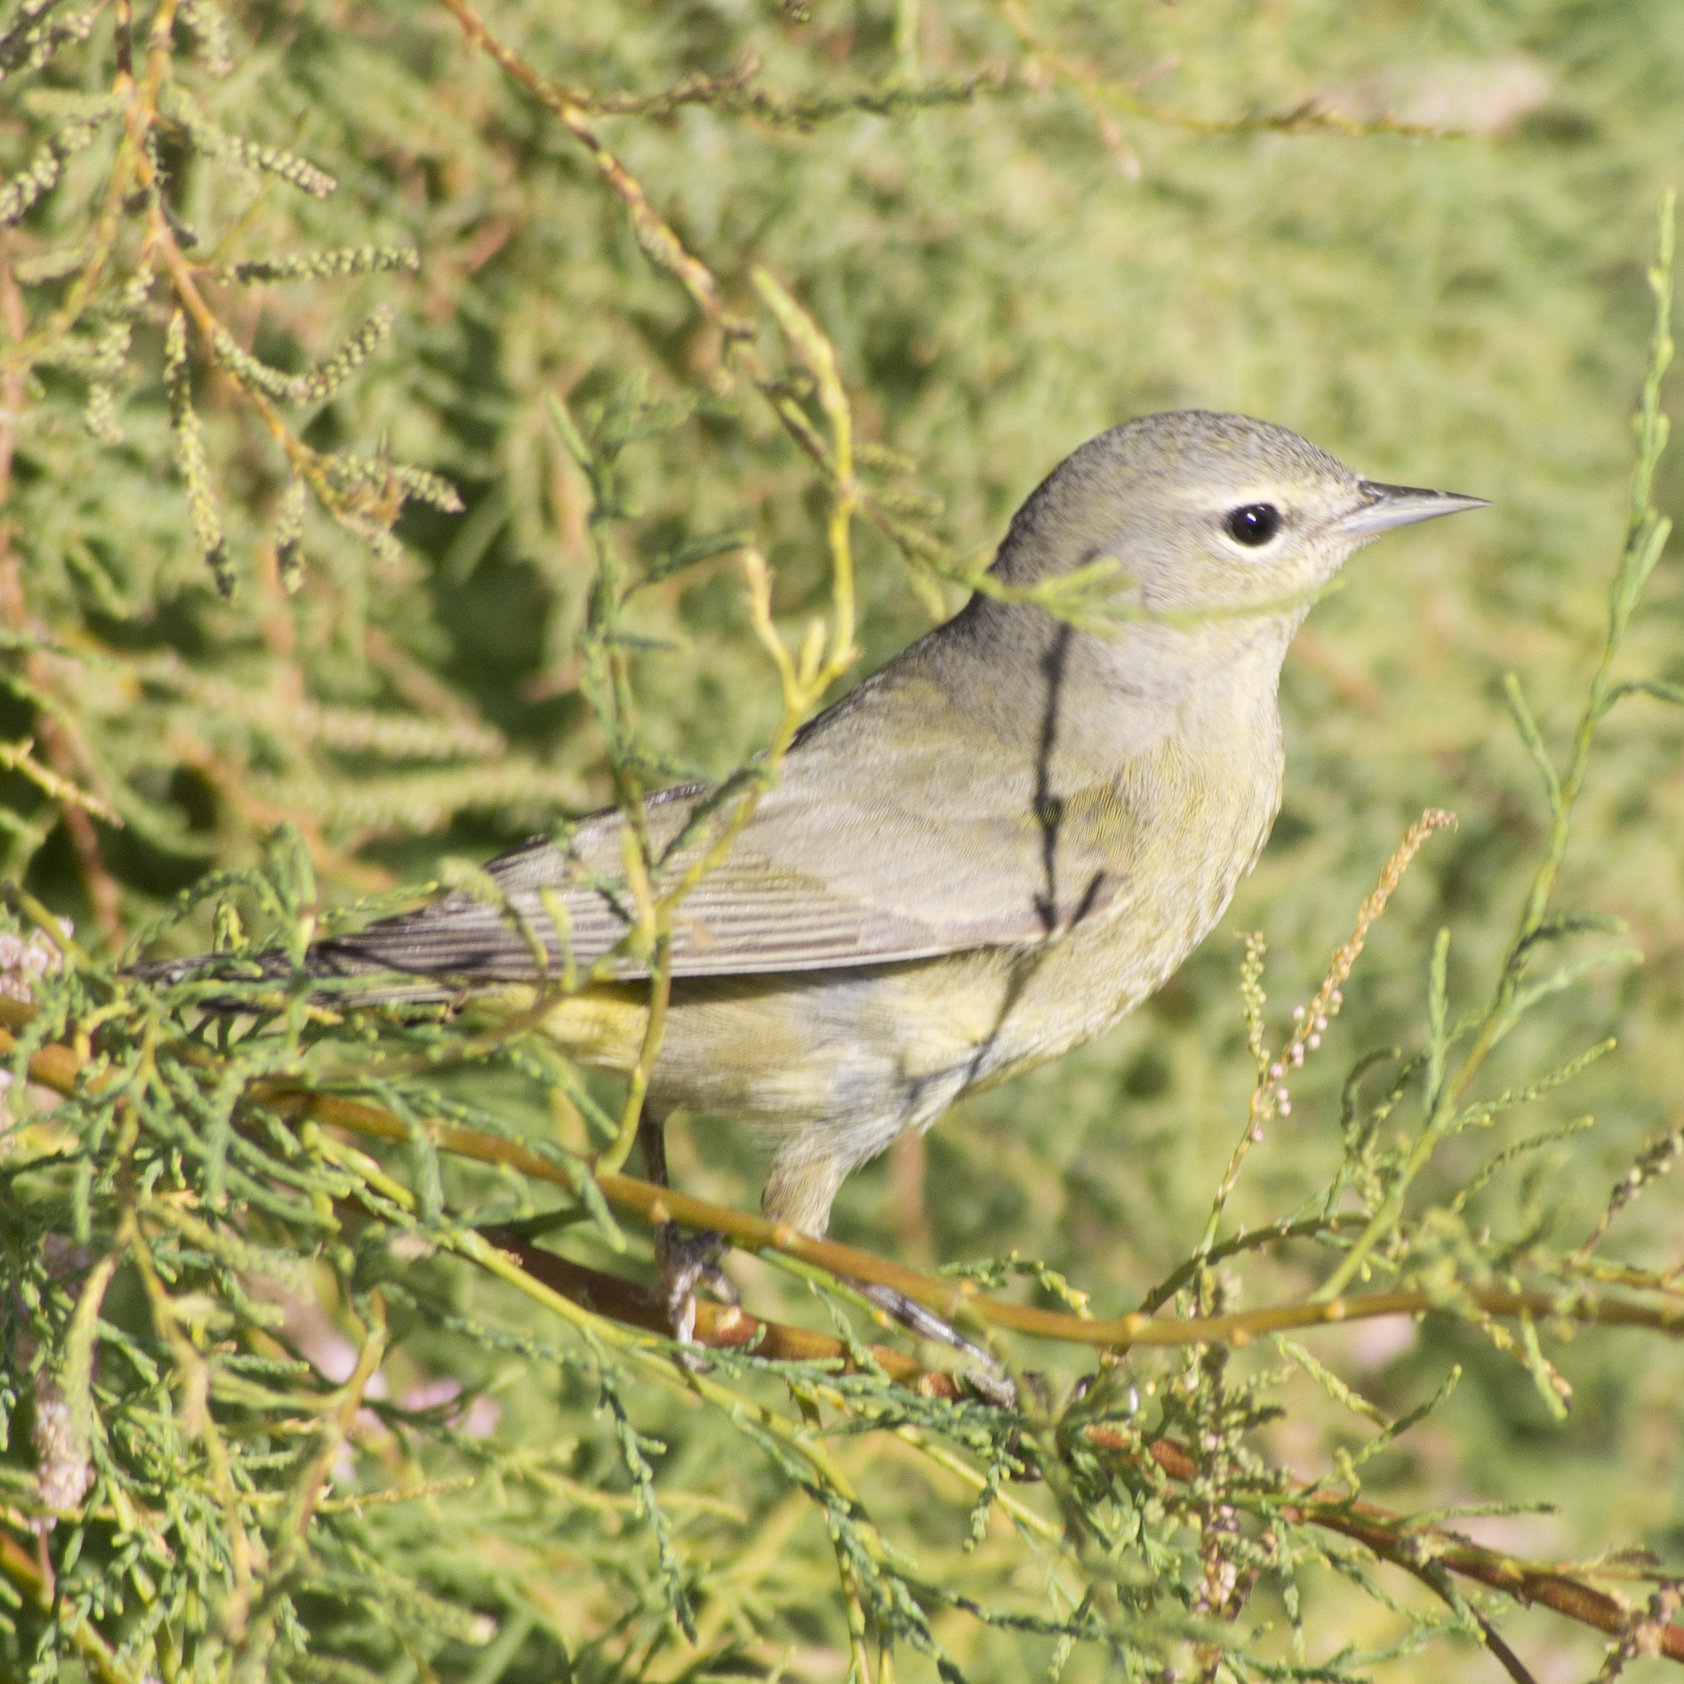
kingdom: Animalia
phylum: Chordata
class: Aves
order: Passeriformes
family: Parulidae
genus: Leiothlypis
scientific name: Leiothlypis celata
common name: Orange-crowned warbler
